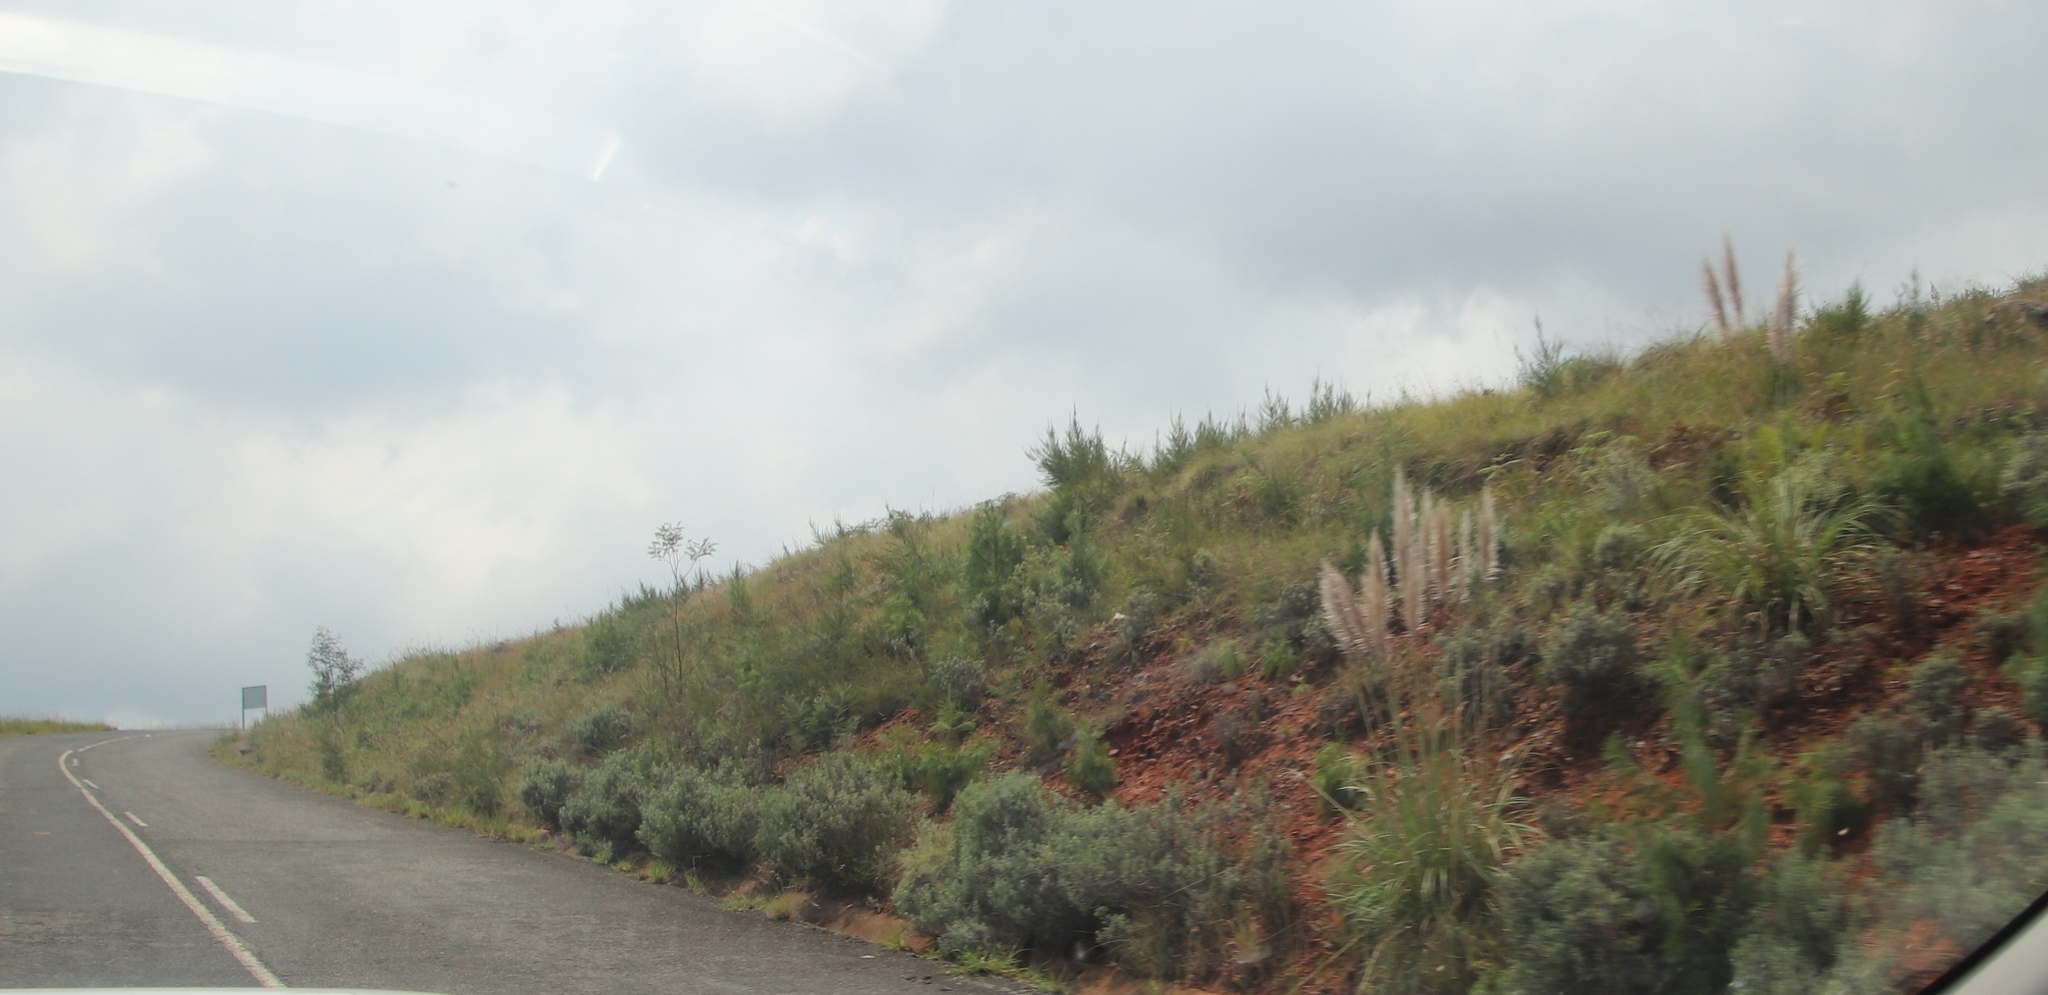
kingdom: Plantae
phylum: Tracheophyta
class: Liliopsida
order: Poales
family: Poaceae
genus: Cortaderia
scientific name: Cortaderia selloana
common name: Uruguayan pampas grass
